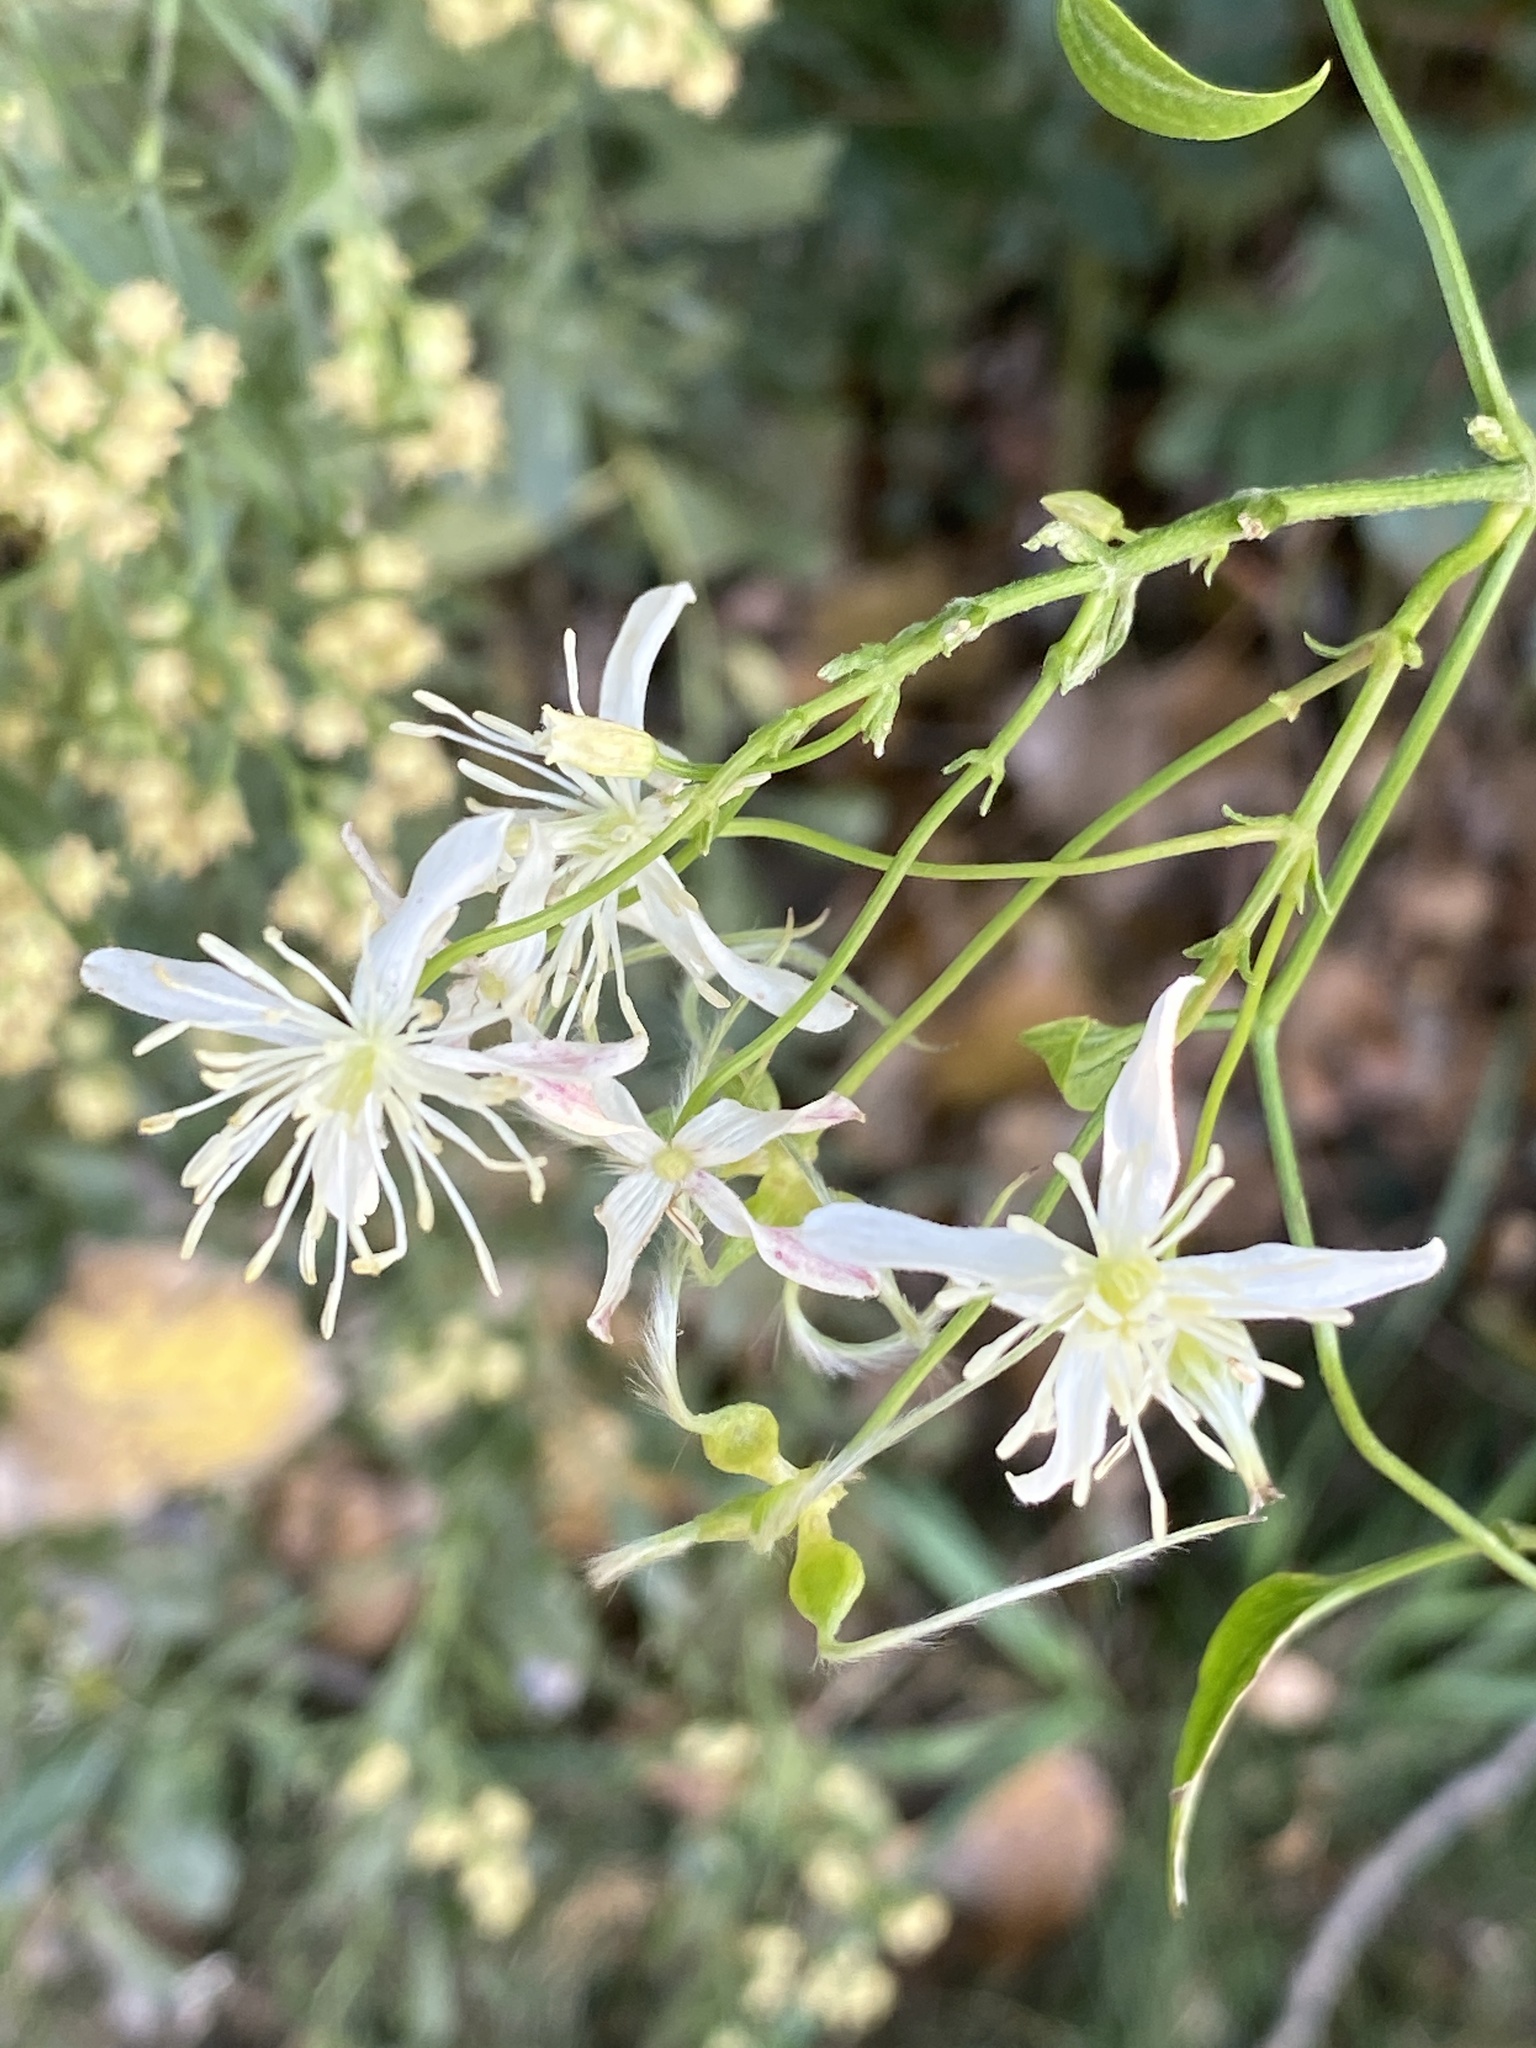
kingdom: Plantae
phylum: Tracheophyta
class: Magnoliopsida
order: Ranunculales
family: Ranunculaceae
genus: Clematis
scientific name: Clematis terniflora
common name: Sweet autumn clematis
